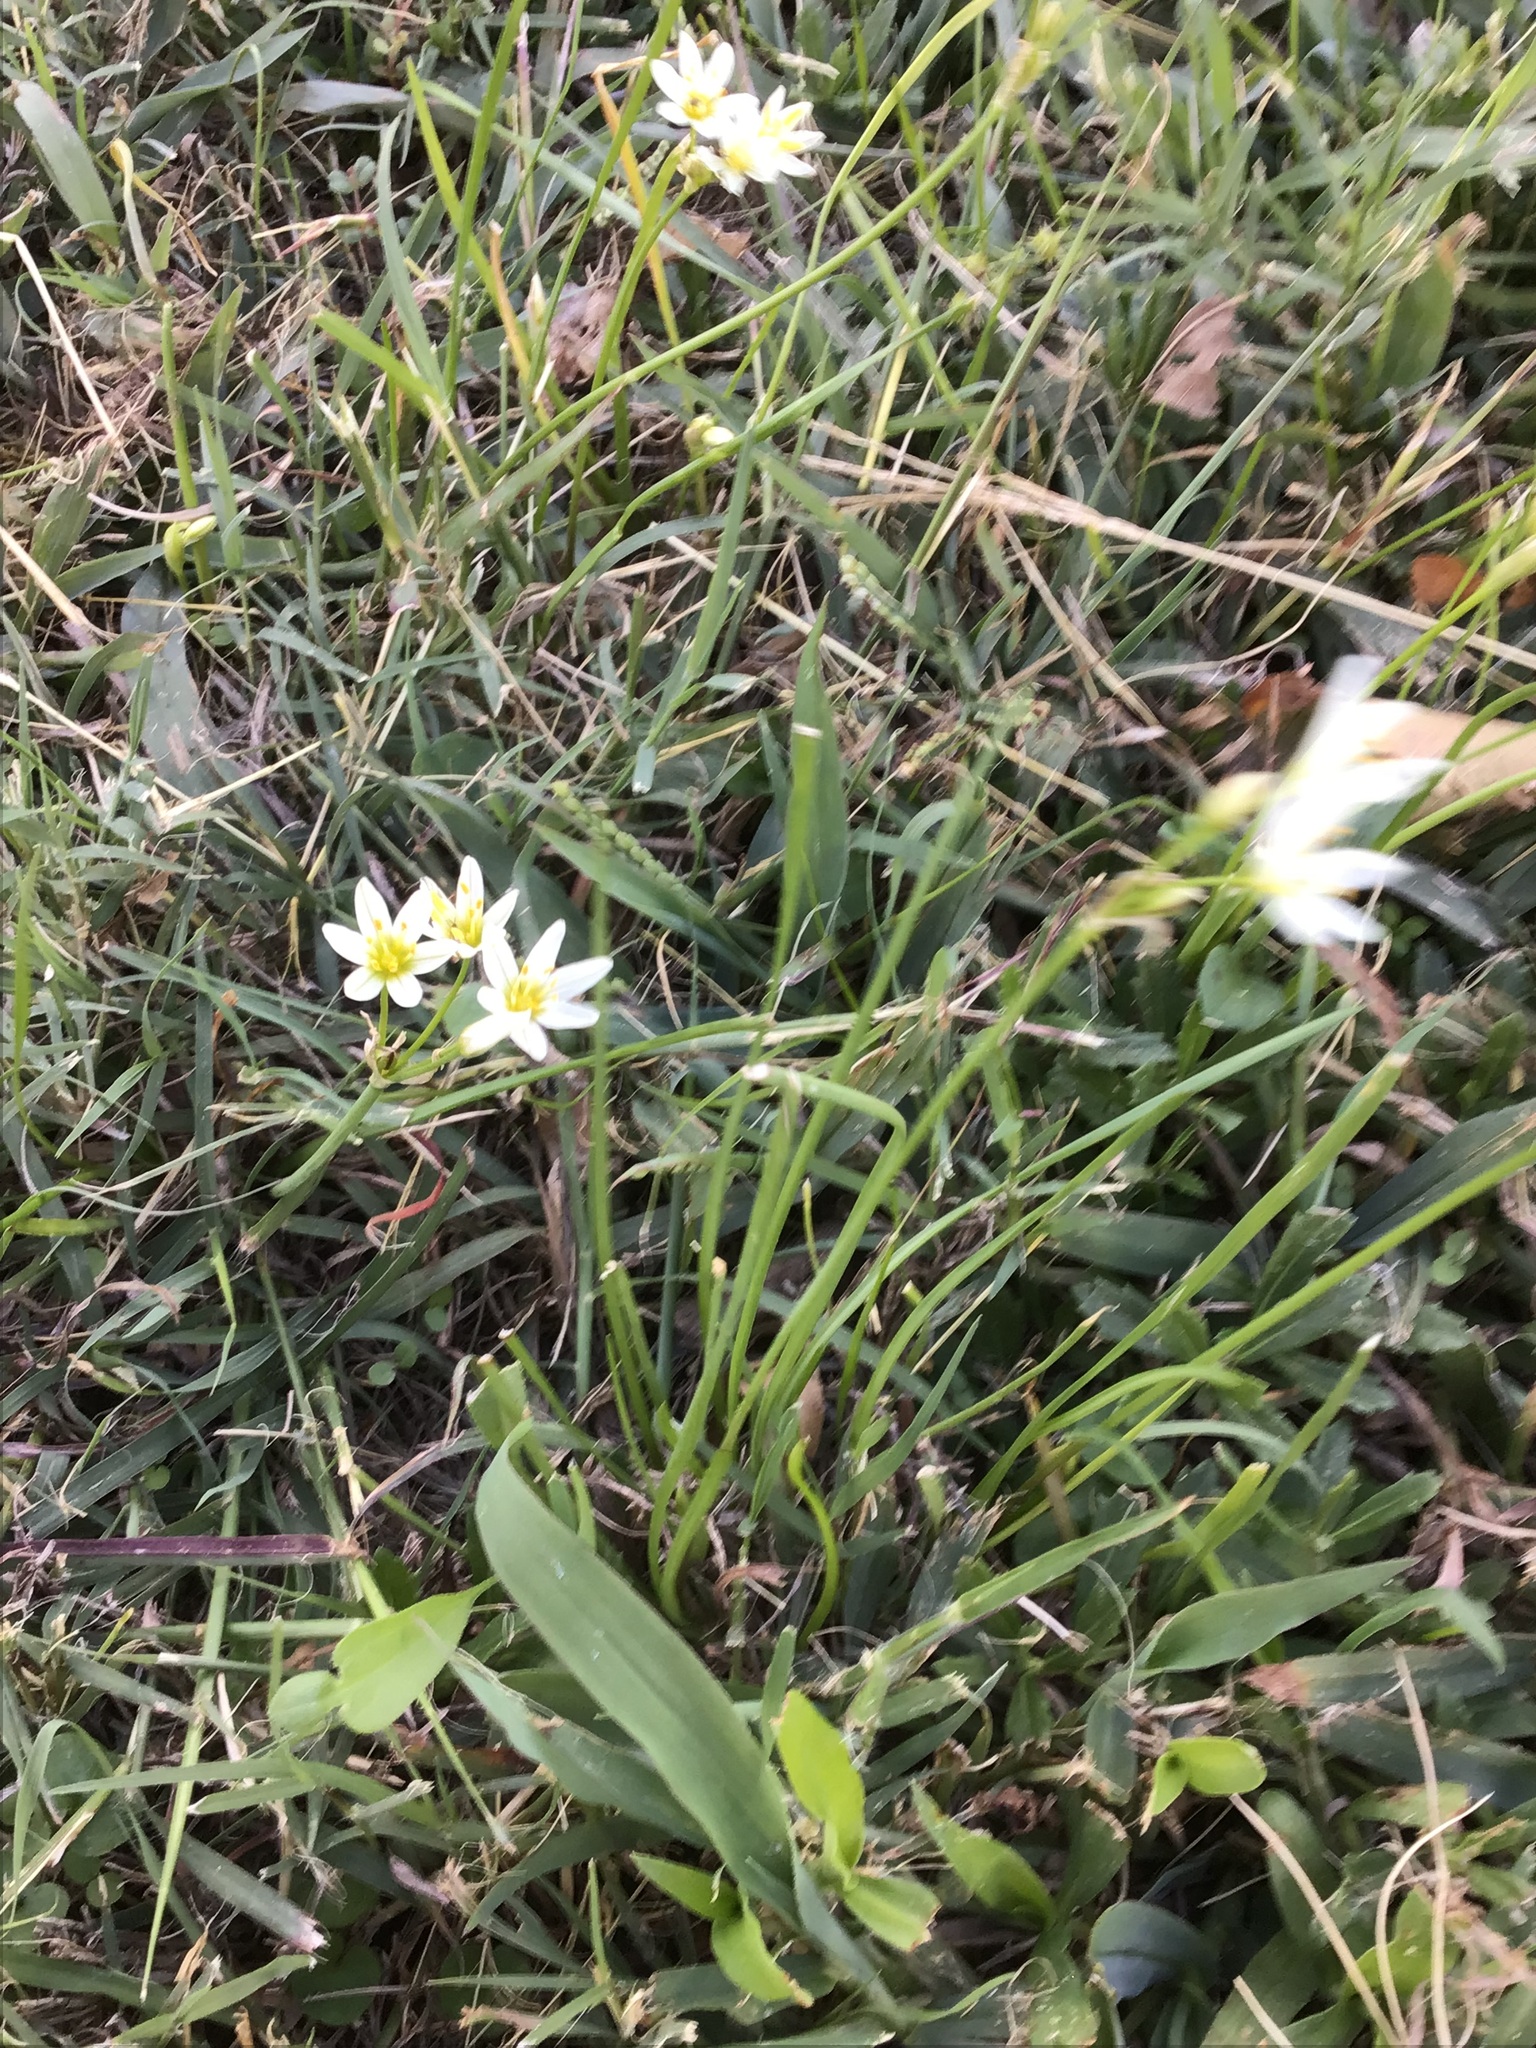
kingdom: Plantae
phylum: Tracheophyta
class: Liliopsida
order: Asparagales
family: Amaryllidaceae
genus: Nothoscordum
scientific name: Nothoscordum bivalve
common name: Crow-poison
